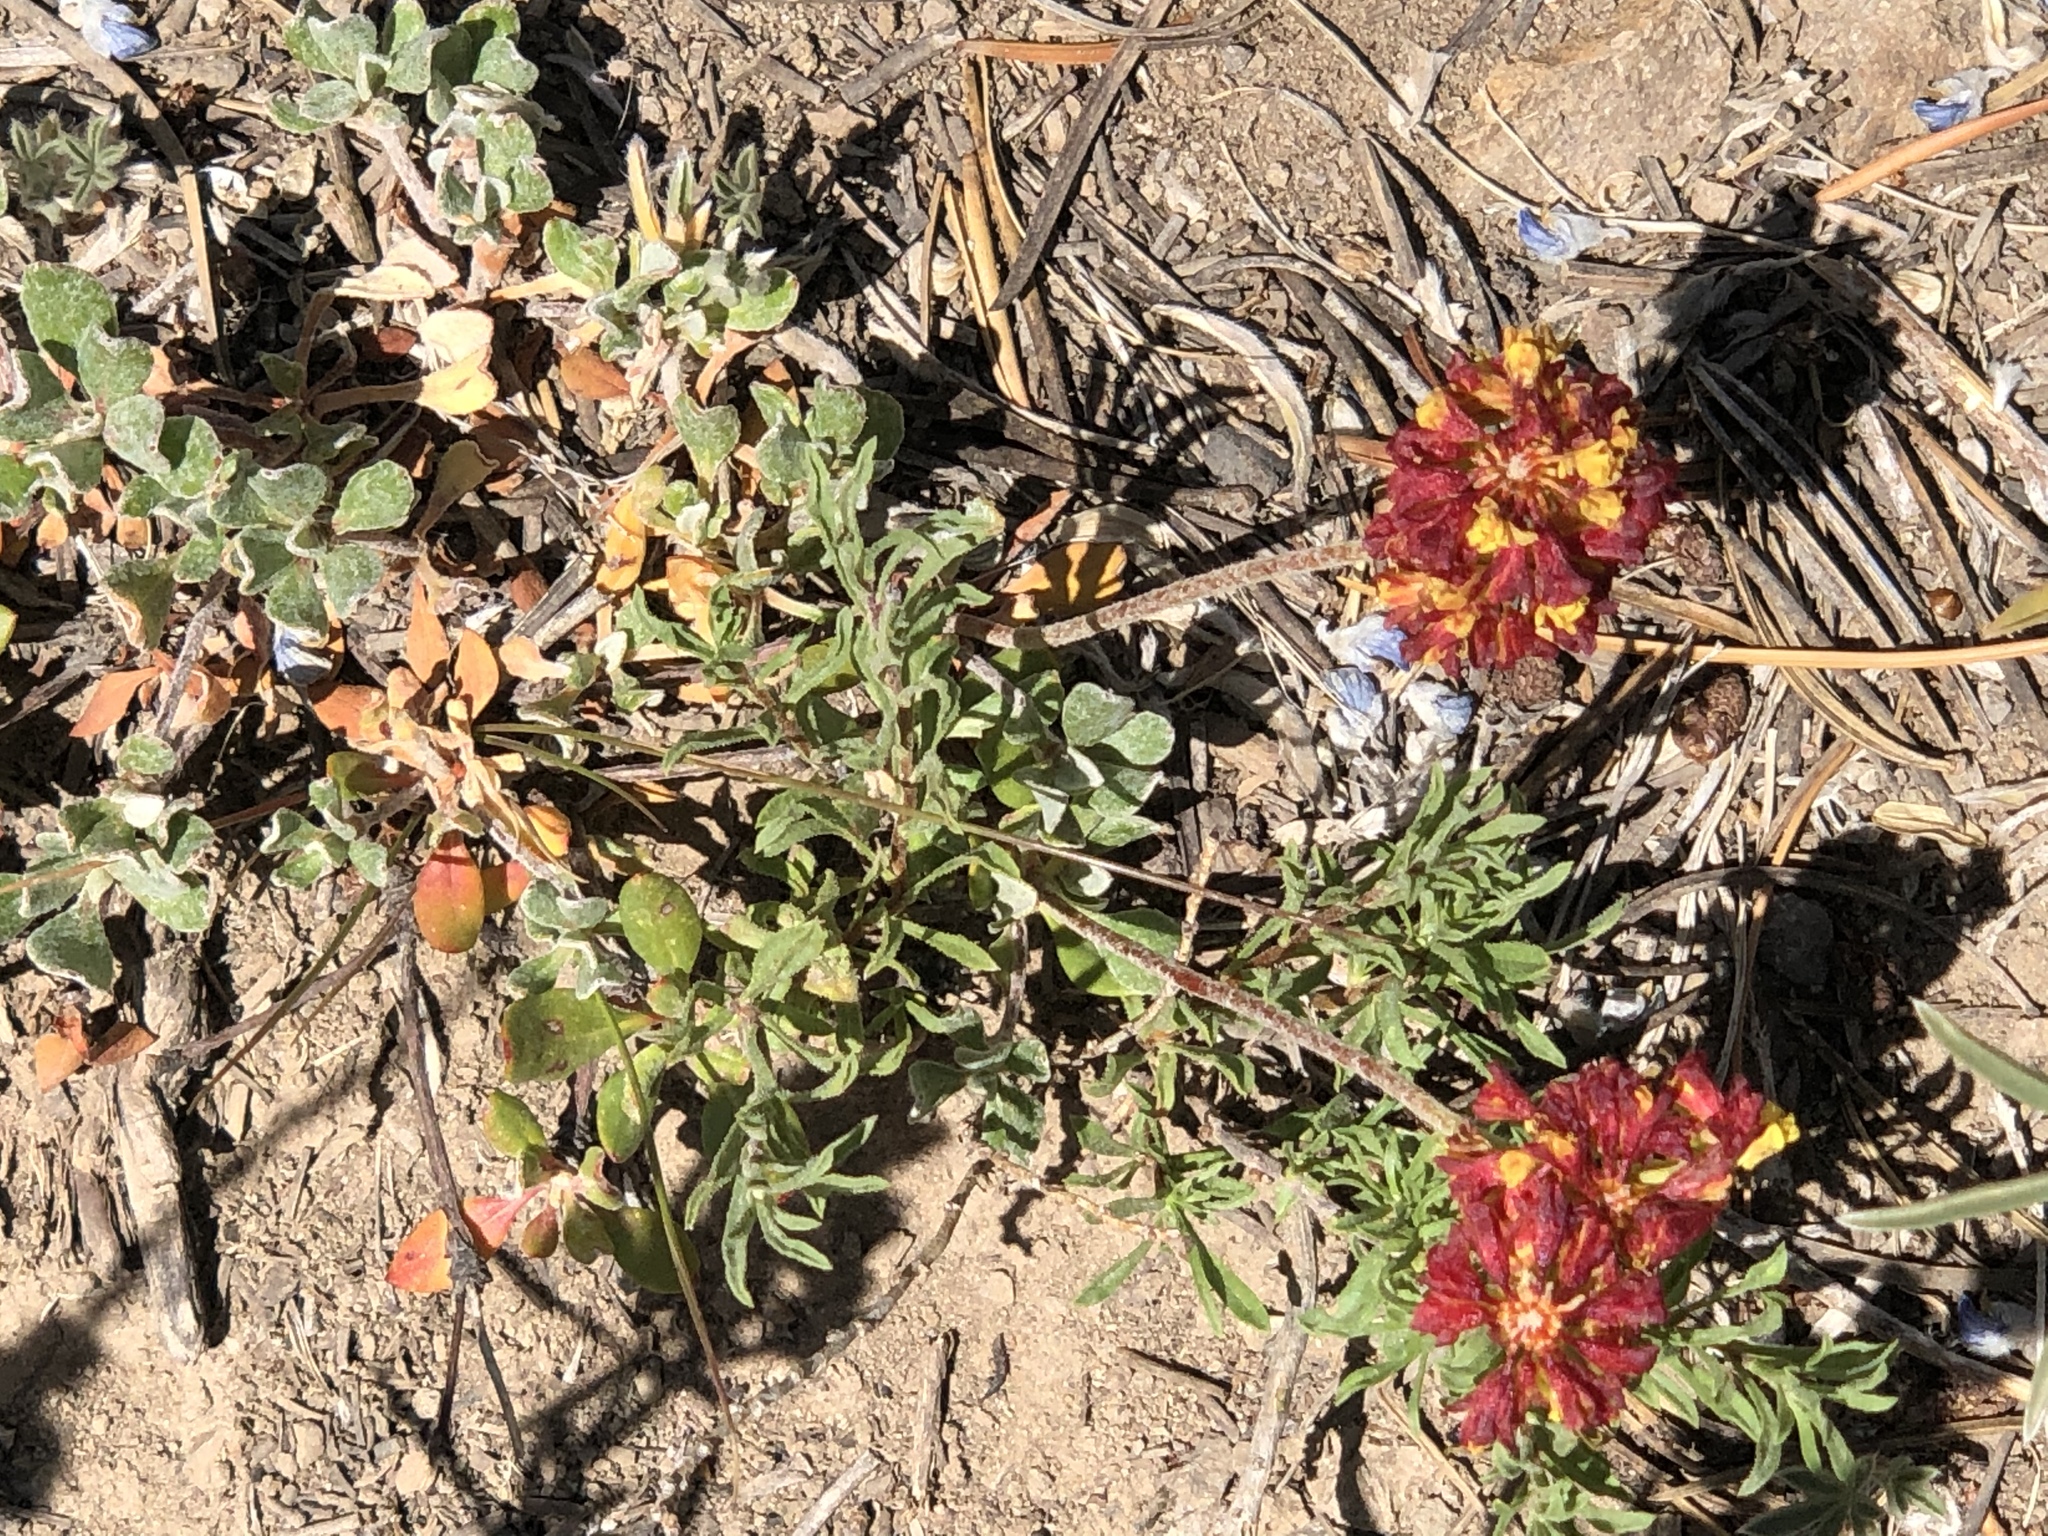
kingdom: Plantae
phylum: Tracheophyta
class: Magnoliopsida
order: Caryophyllales
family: Polygonaceae
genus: Eriogonum
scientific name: Eriogonum umbellatum
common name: Sulfur-buckwheat
